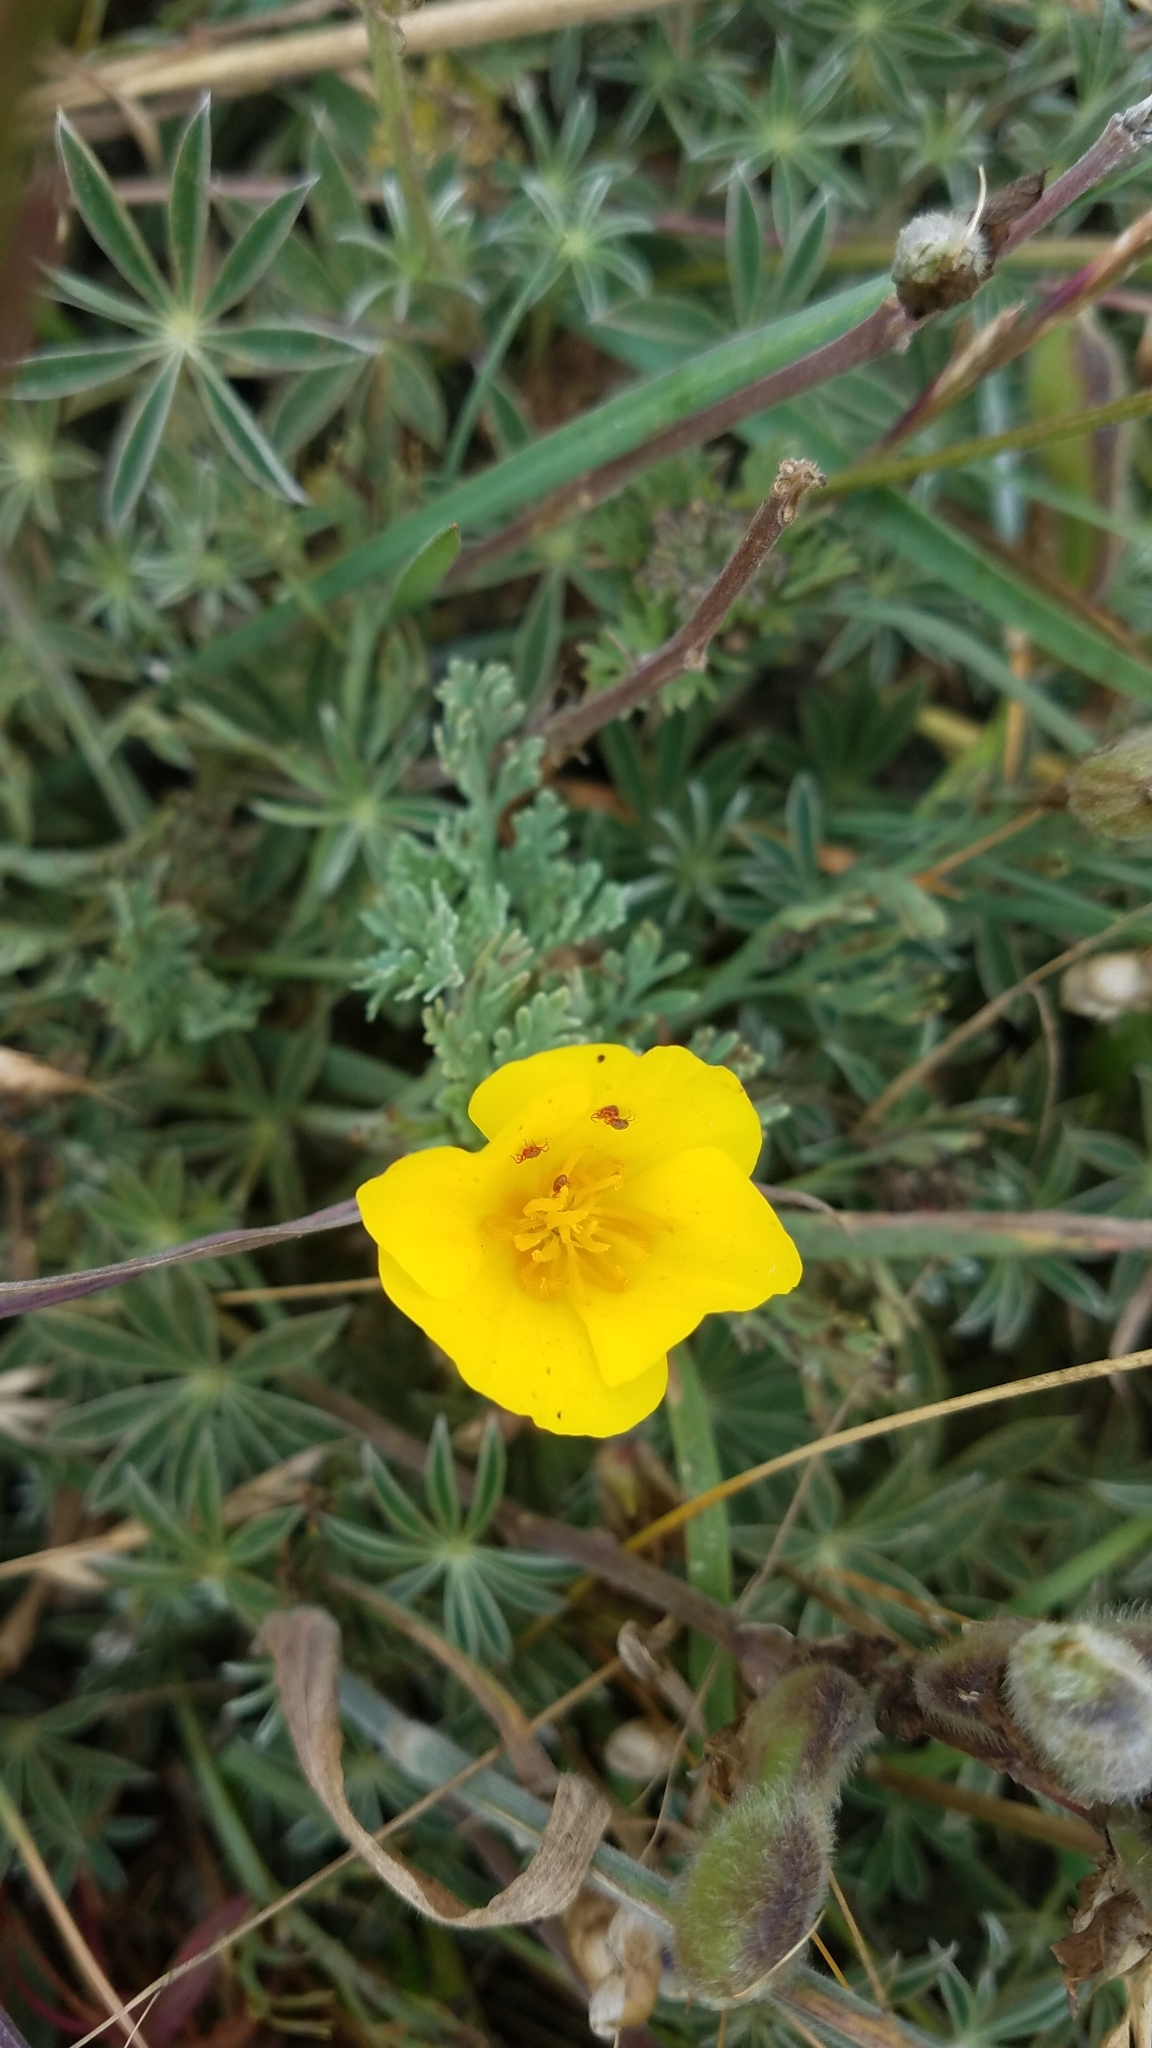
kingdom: Plantae
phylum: Tracheophyta
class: Magnoliopsida
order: Ranunculales
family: Papaveraceae
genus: Eschscholzia
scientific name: Eschscholzia californica
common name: California poppy
